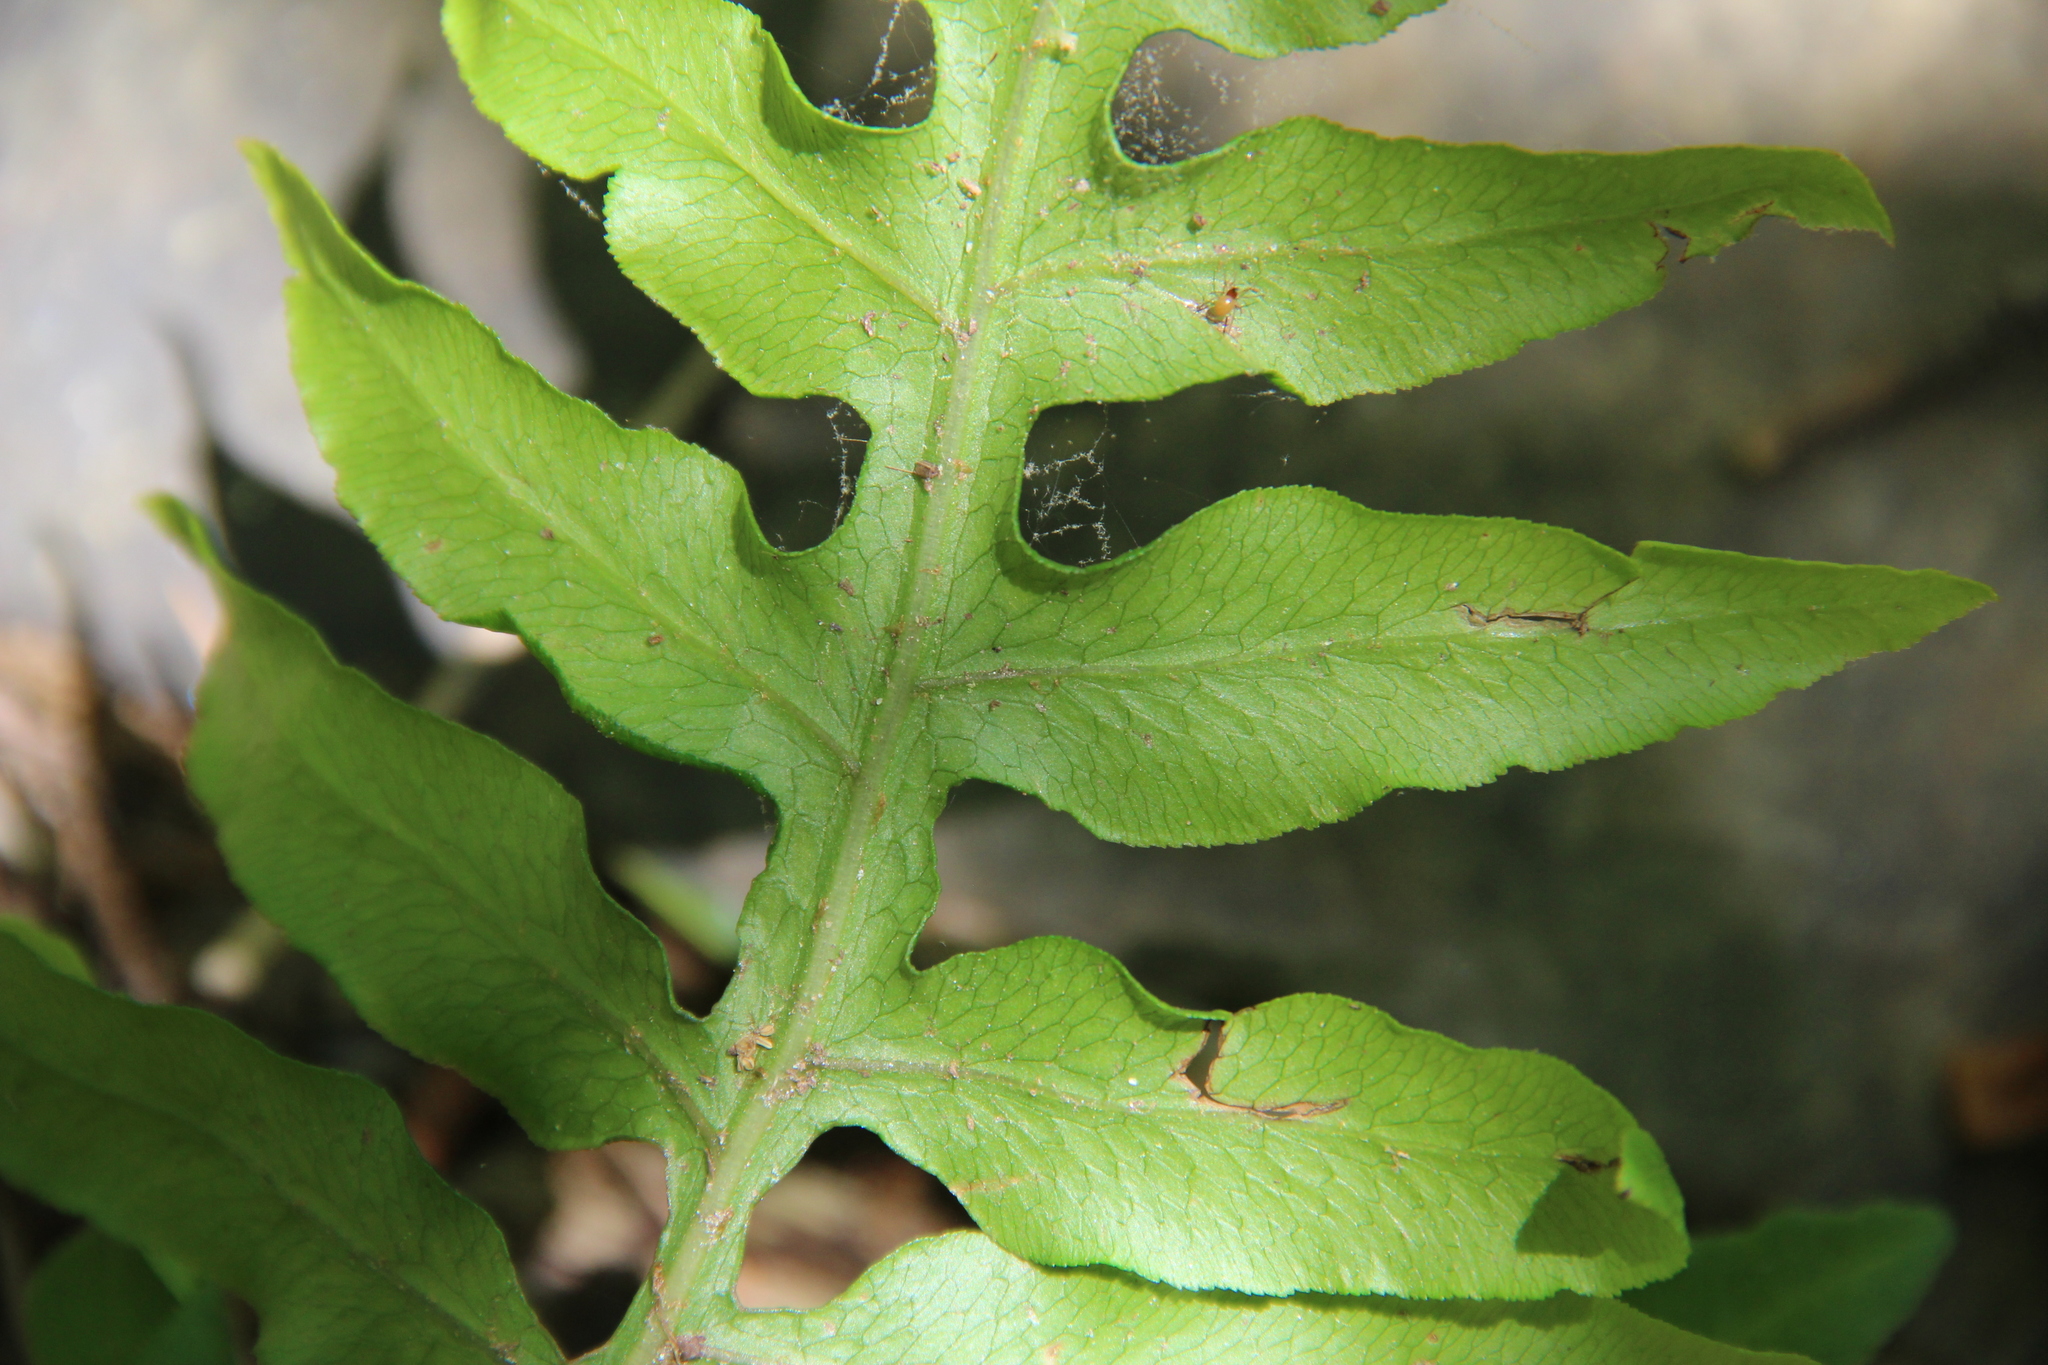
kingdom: Plantae
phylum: Tracheophyta
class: Polypodiopsida
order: Polypodiales
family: Blechnaceae
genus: Lorinseria
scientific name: Lorinseria areolata
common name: Dwarf chain fern
